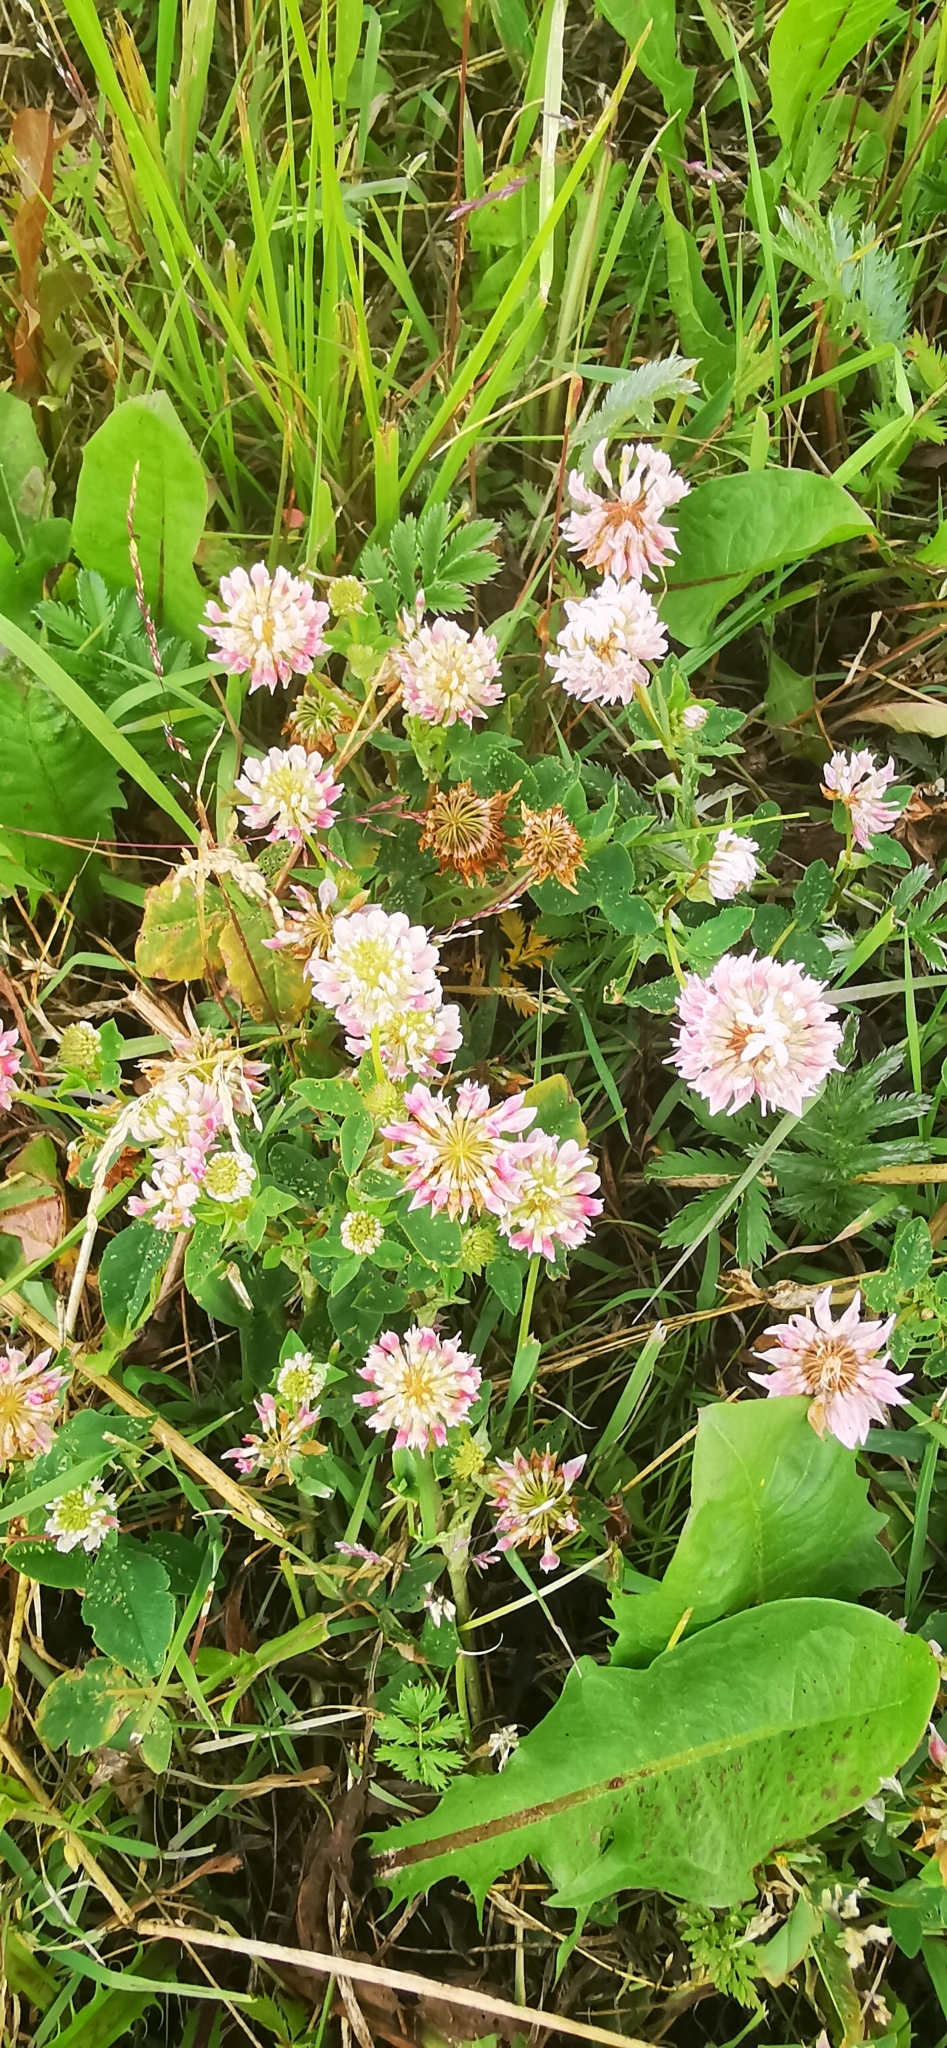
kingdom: Plantae
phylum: Tracheophyta
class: Magnoliopsida
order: Fabales
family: Fabaceae
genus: Trifolium
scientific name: Trifolium hybridum
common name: Alsike clover
